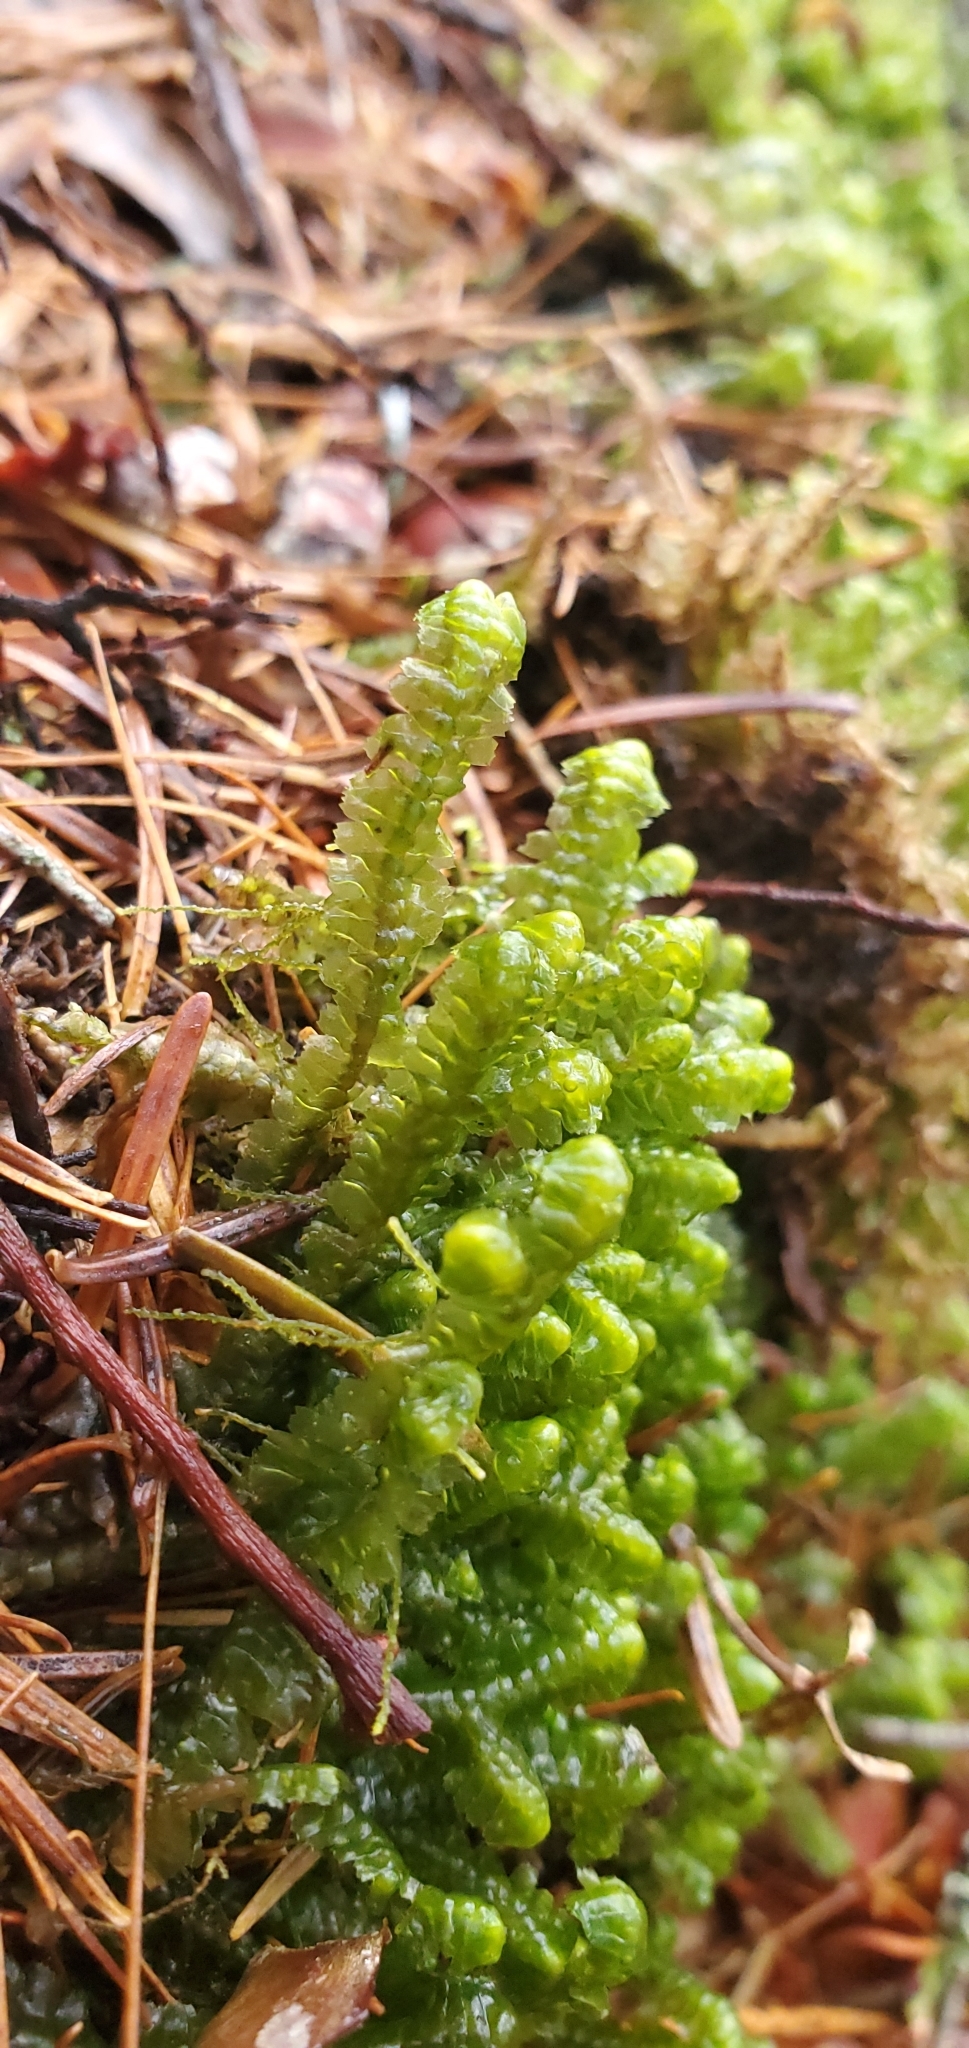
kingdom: Plantae
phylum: Marchantiophyta
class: Jungermanniopsida
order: Jungermanniales
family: Lepidoziaceae
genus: Bazzania
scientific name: Bazzania trilobata
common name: Three-lobed whipwort
